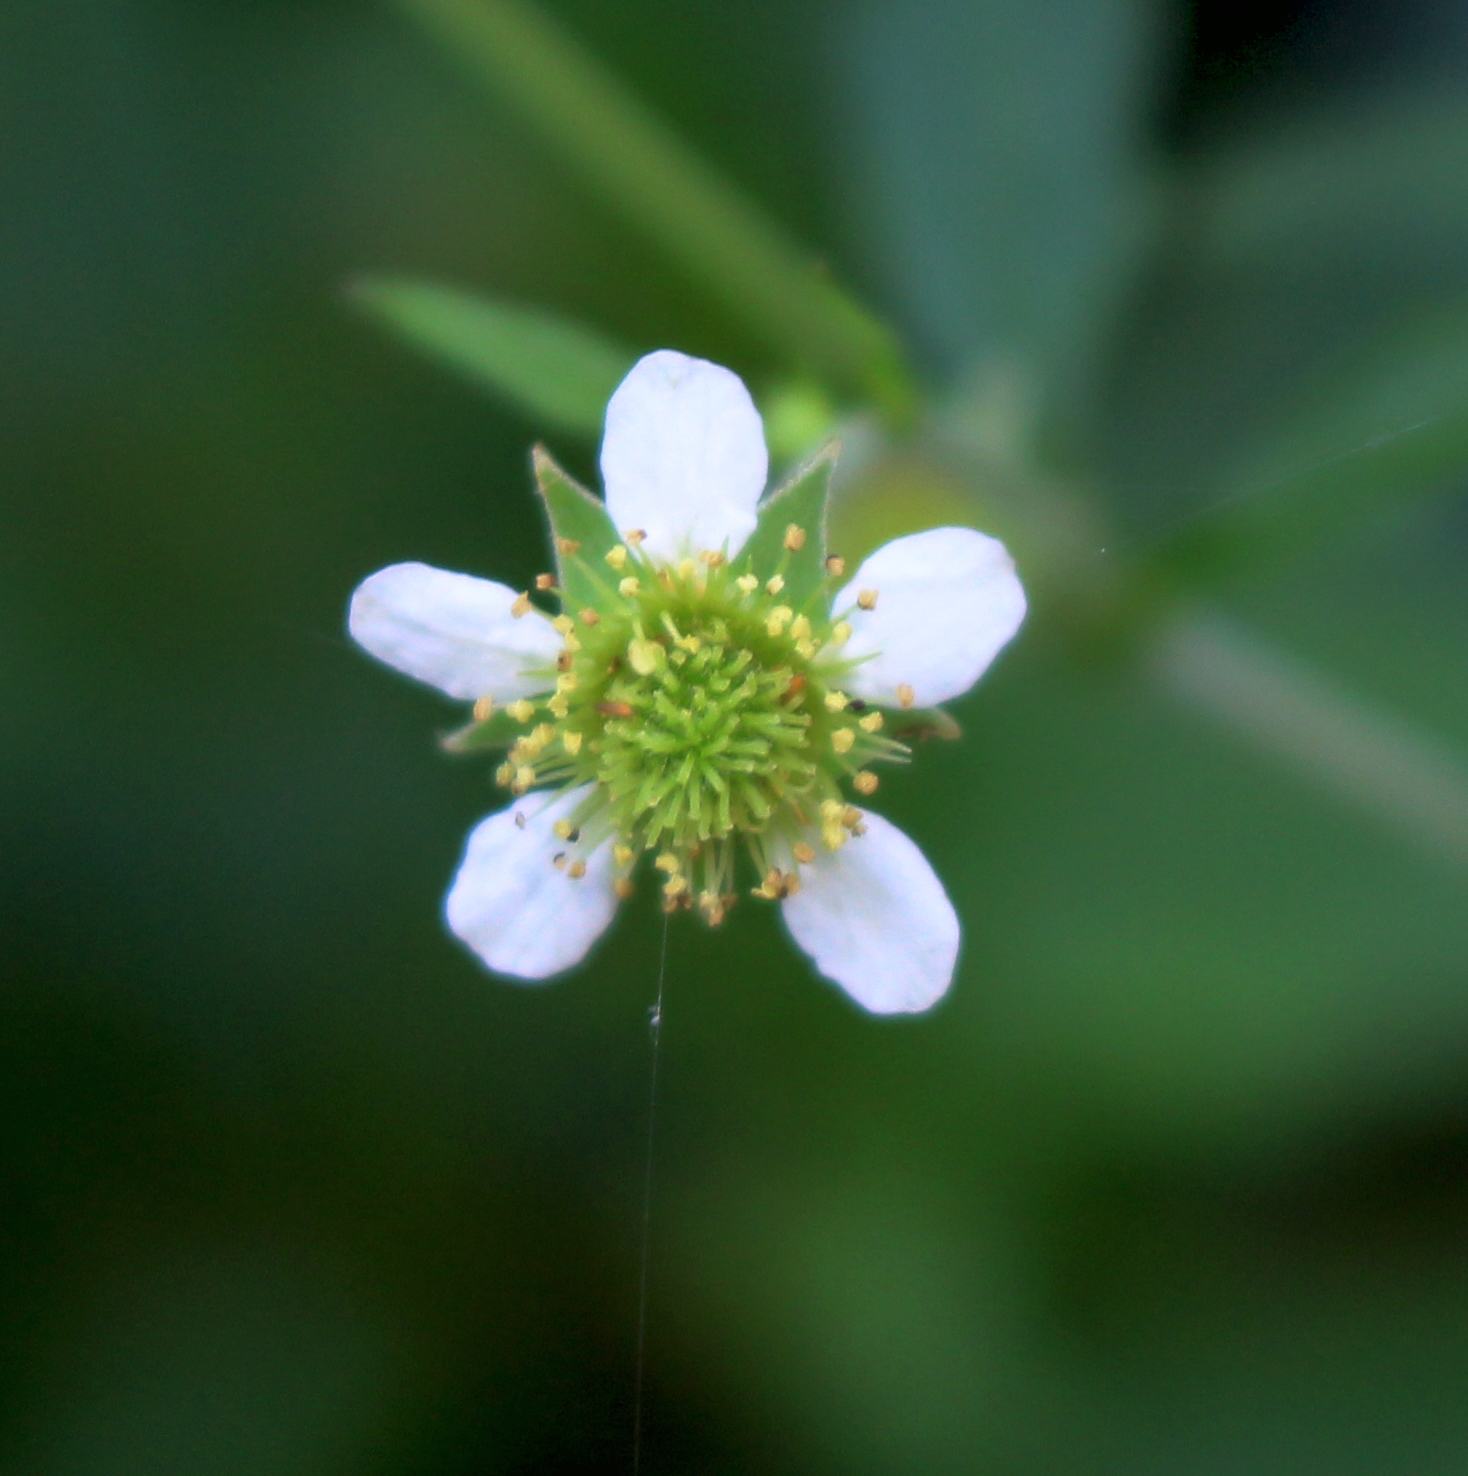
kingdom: Plantae
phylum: Tracheophyta
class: Magnoliopsida
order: Rosales
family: Rosaceae
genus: Geum
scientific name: Geum canadense
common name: White avens
